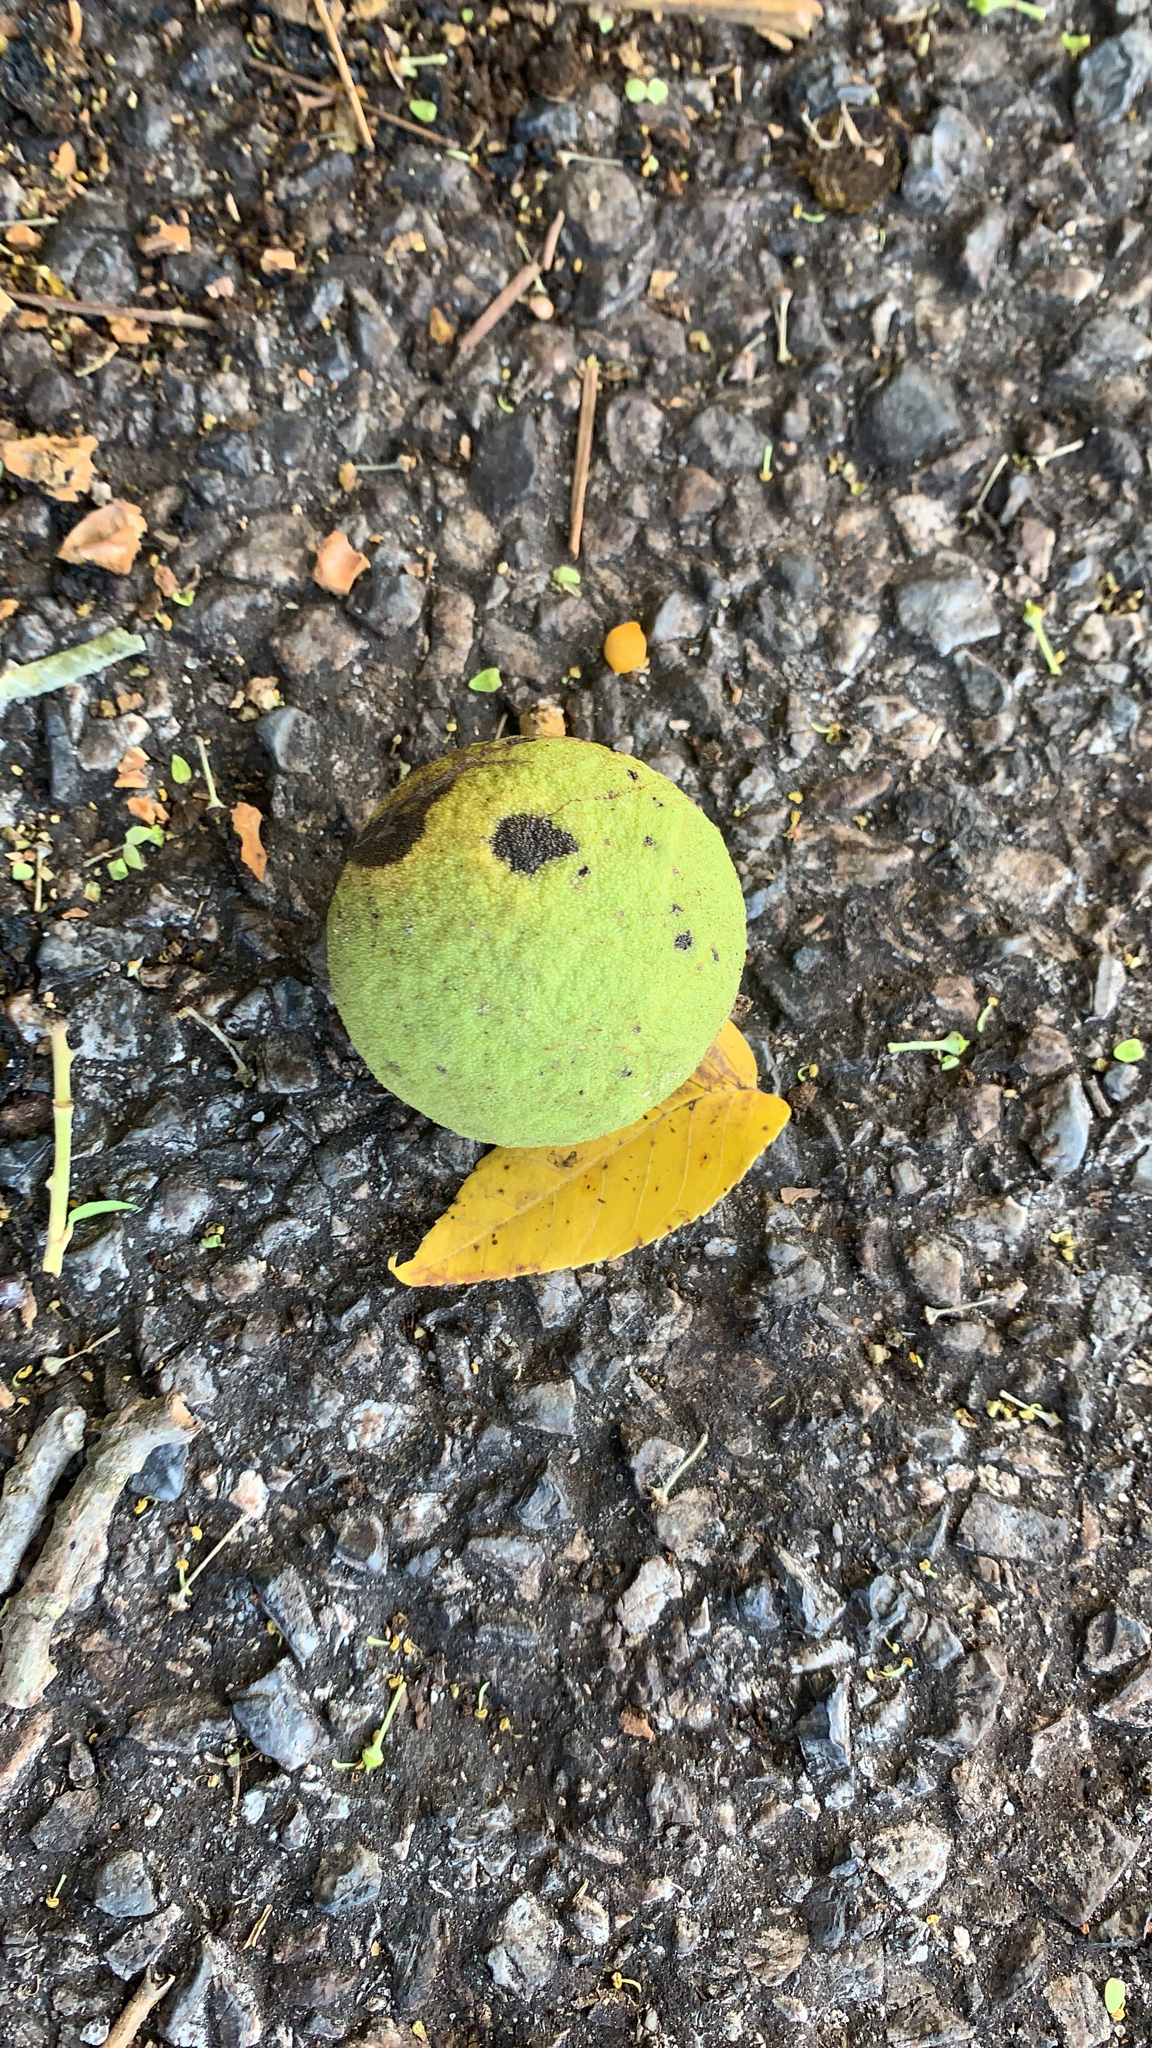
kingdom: Plantae
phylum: Tracheophyta
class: Magnoliopsida
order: Fagales
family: Juglandaceae
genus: Juglans
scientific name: Juglans nigra
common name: Black walnut
